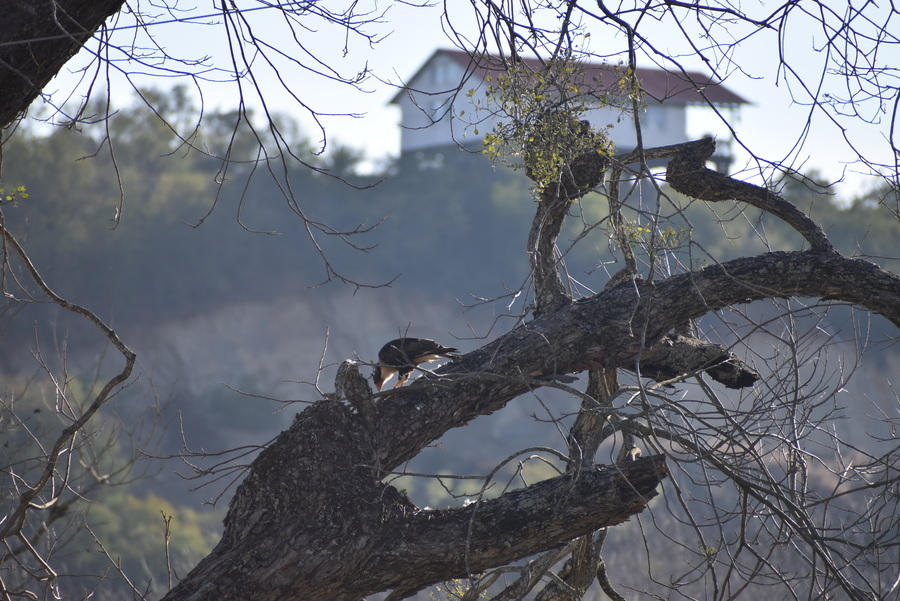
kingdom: Animalia
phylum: Chordata
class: Aves
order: Falconiformes
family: Falconidae
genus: Caracara
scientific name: Caracara plancus
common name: Southern caracara
